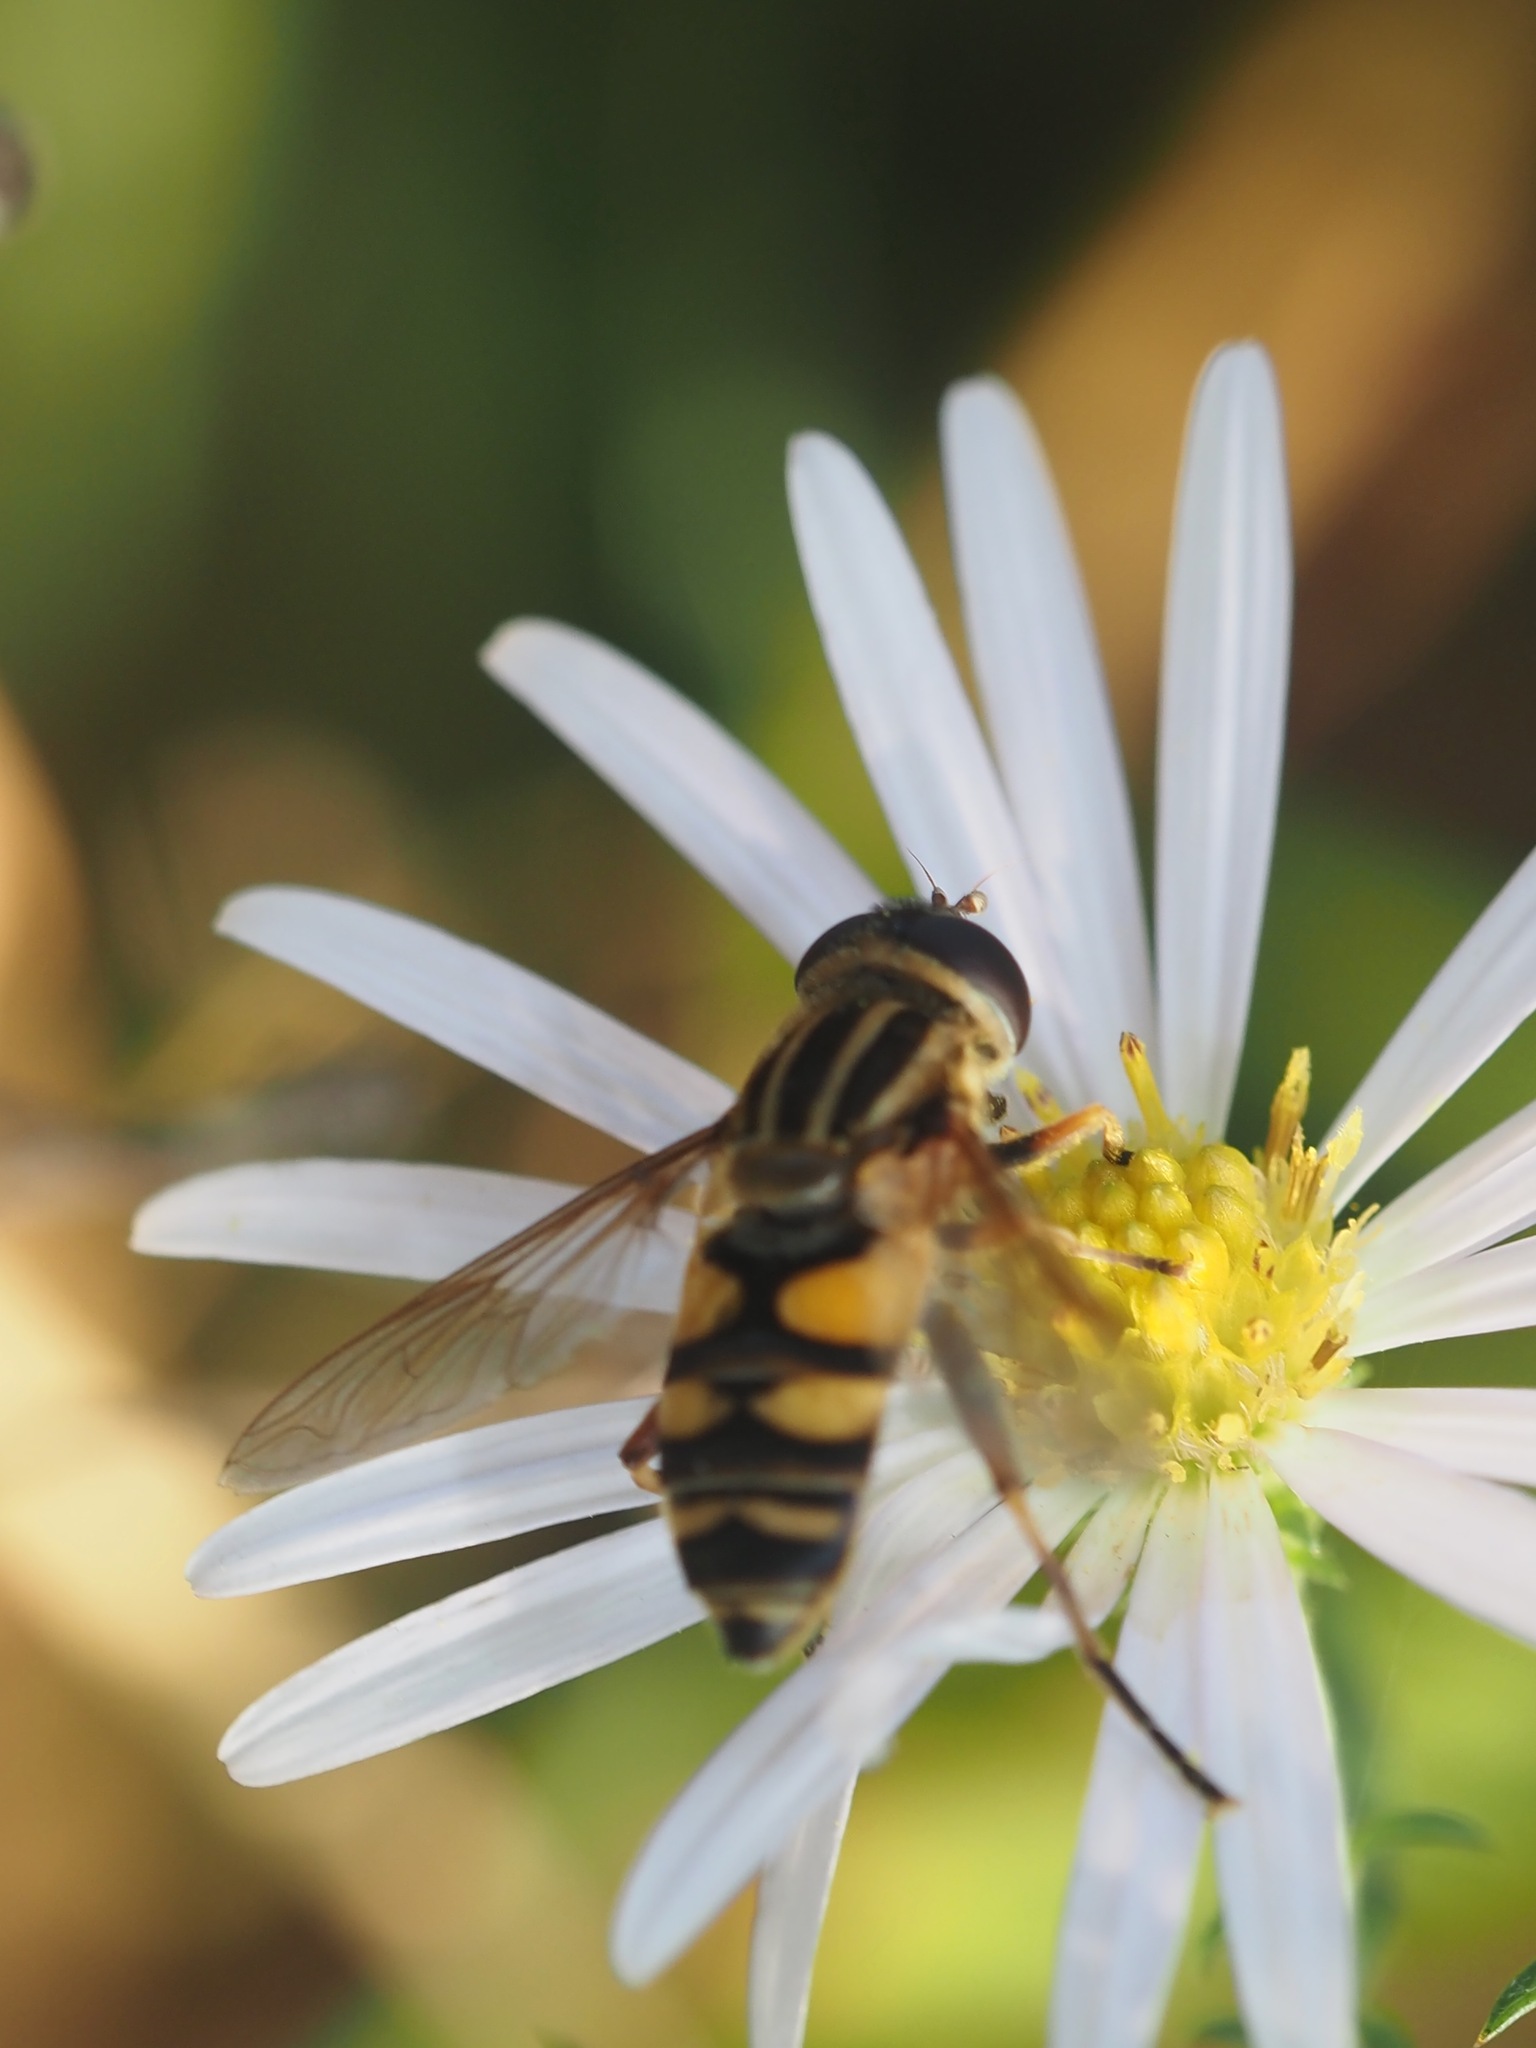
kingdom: Animalia
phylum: Arthropoda
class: Insecta
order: Diptera
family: Syrphidae
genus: Helophilus
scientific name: Helophilus fasciatus
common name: Narrow-headed marsh fly
